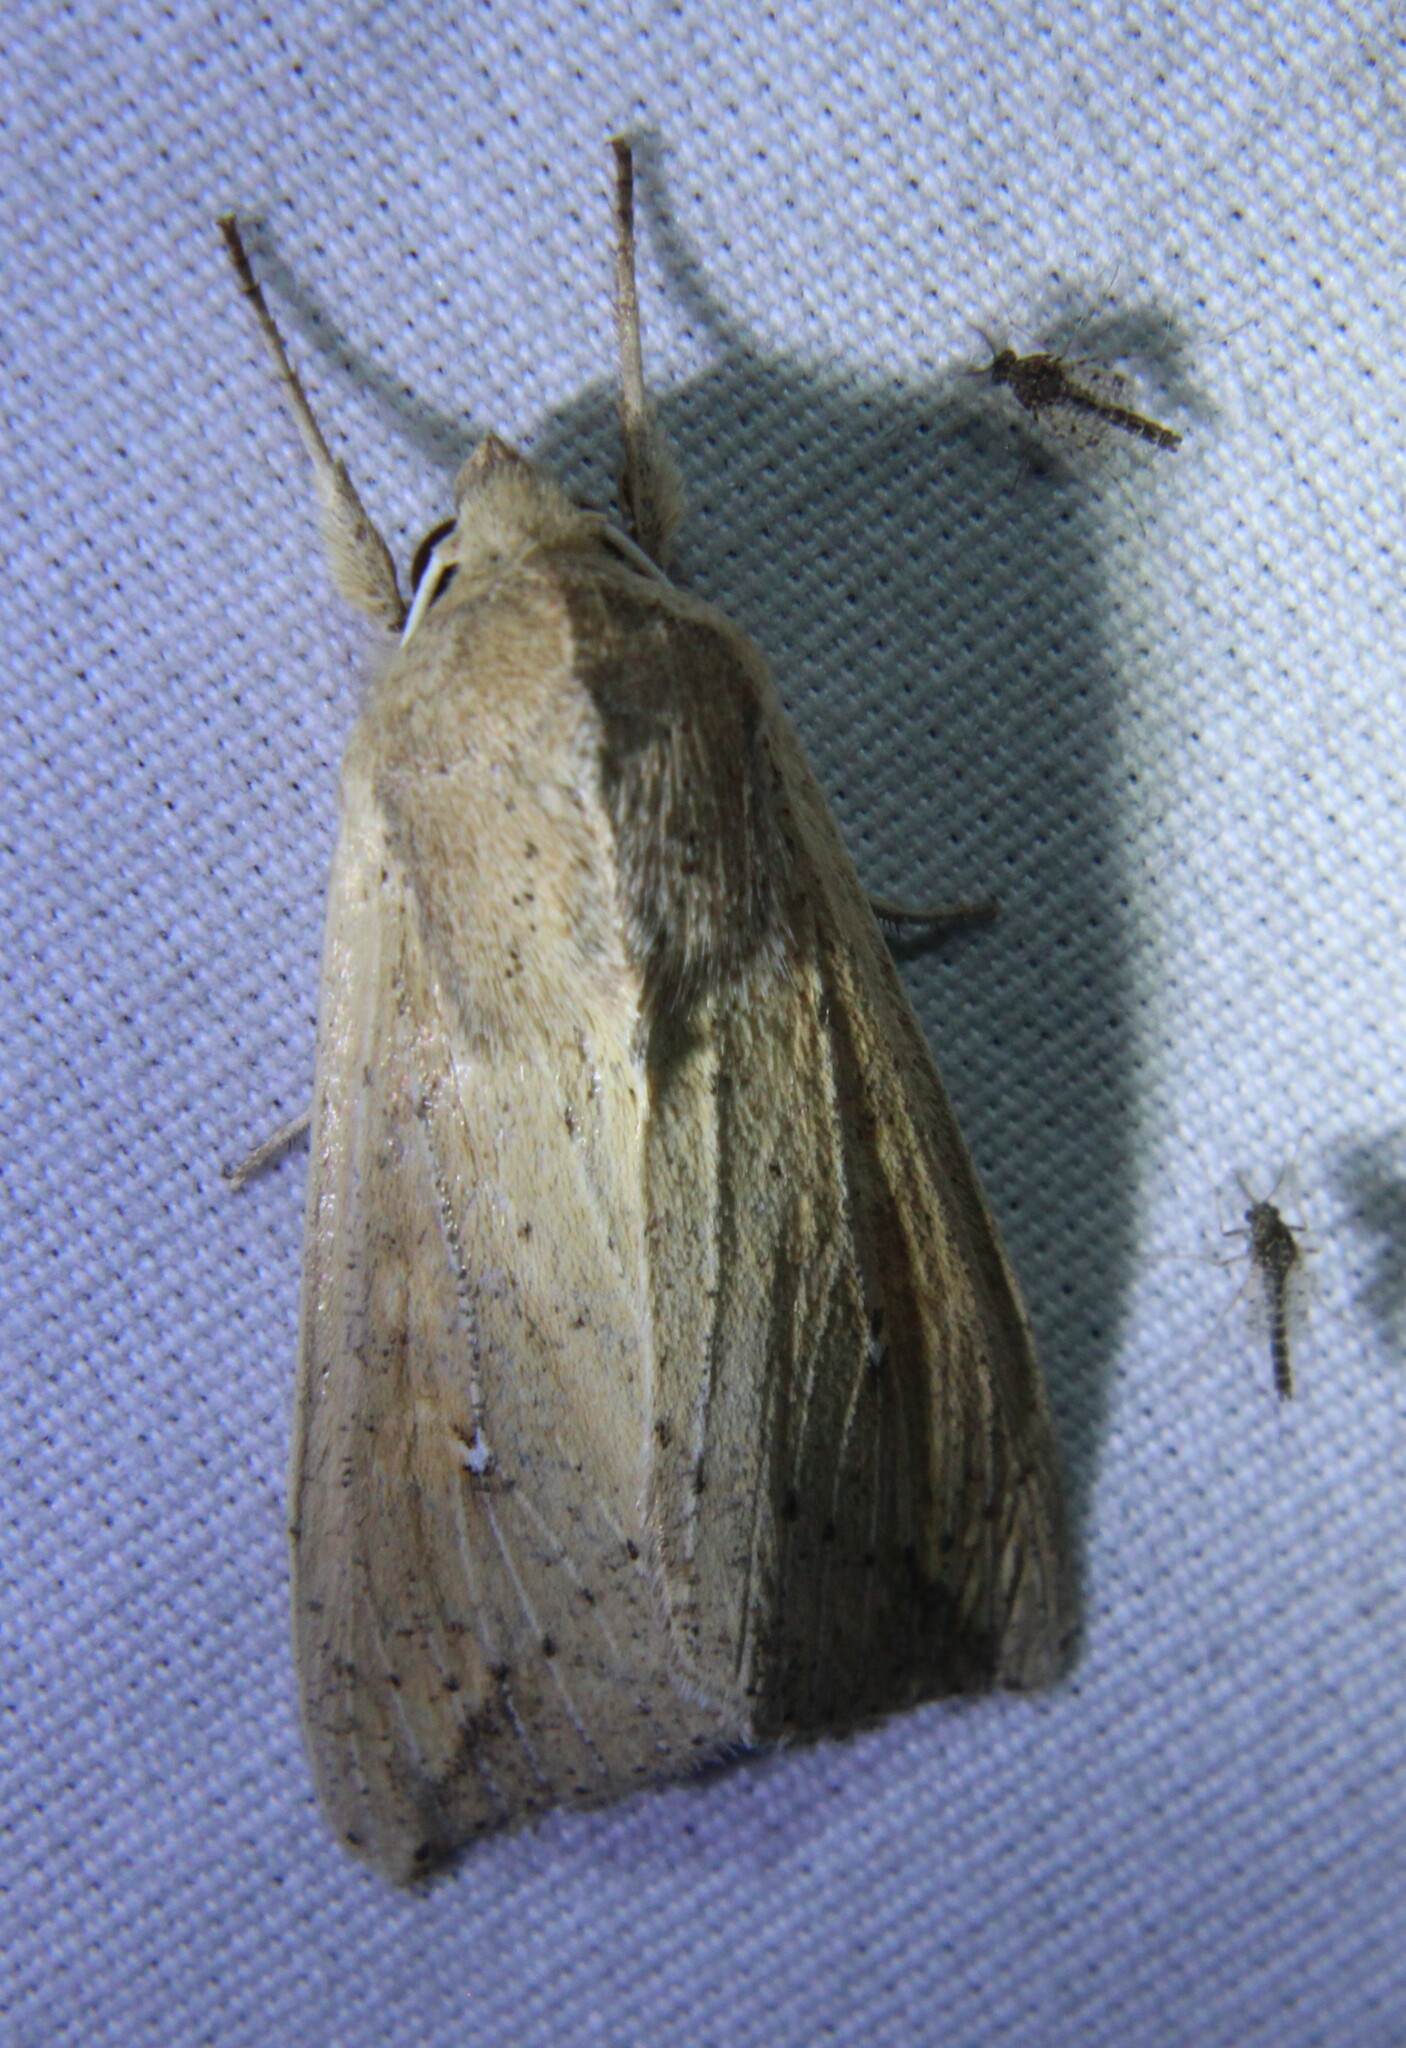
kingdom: Animalia
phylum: Arthropoda
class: Insecta
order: Lepidoptera
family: Noctuidae
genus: Mythimna
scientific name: Mythimna unipuncta
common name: White-speck
